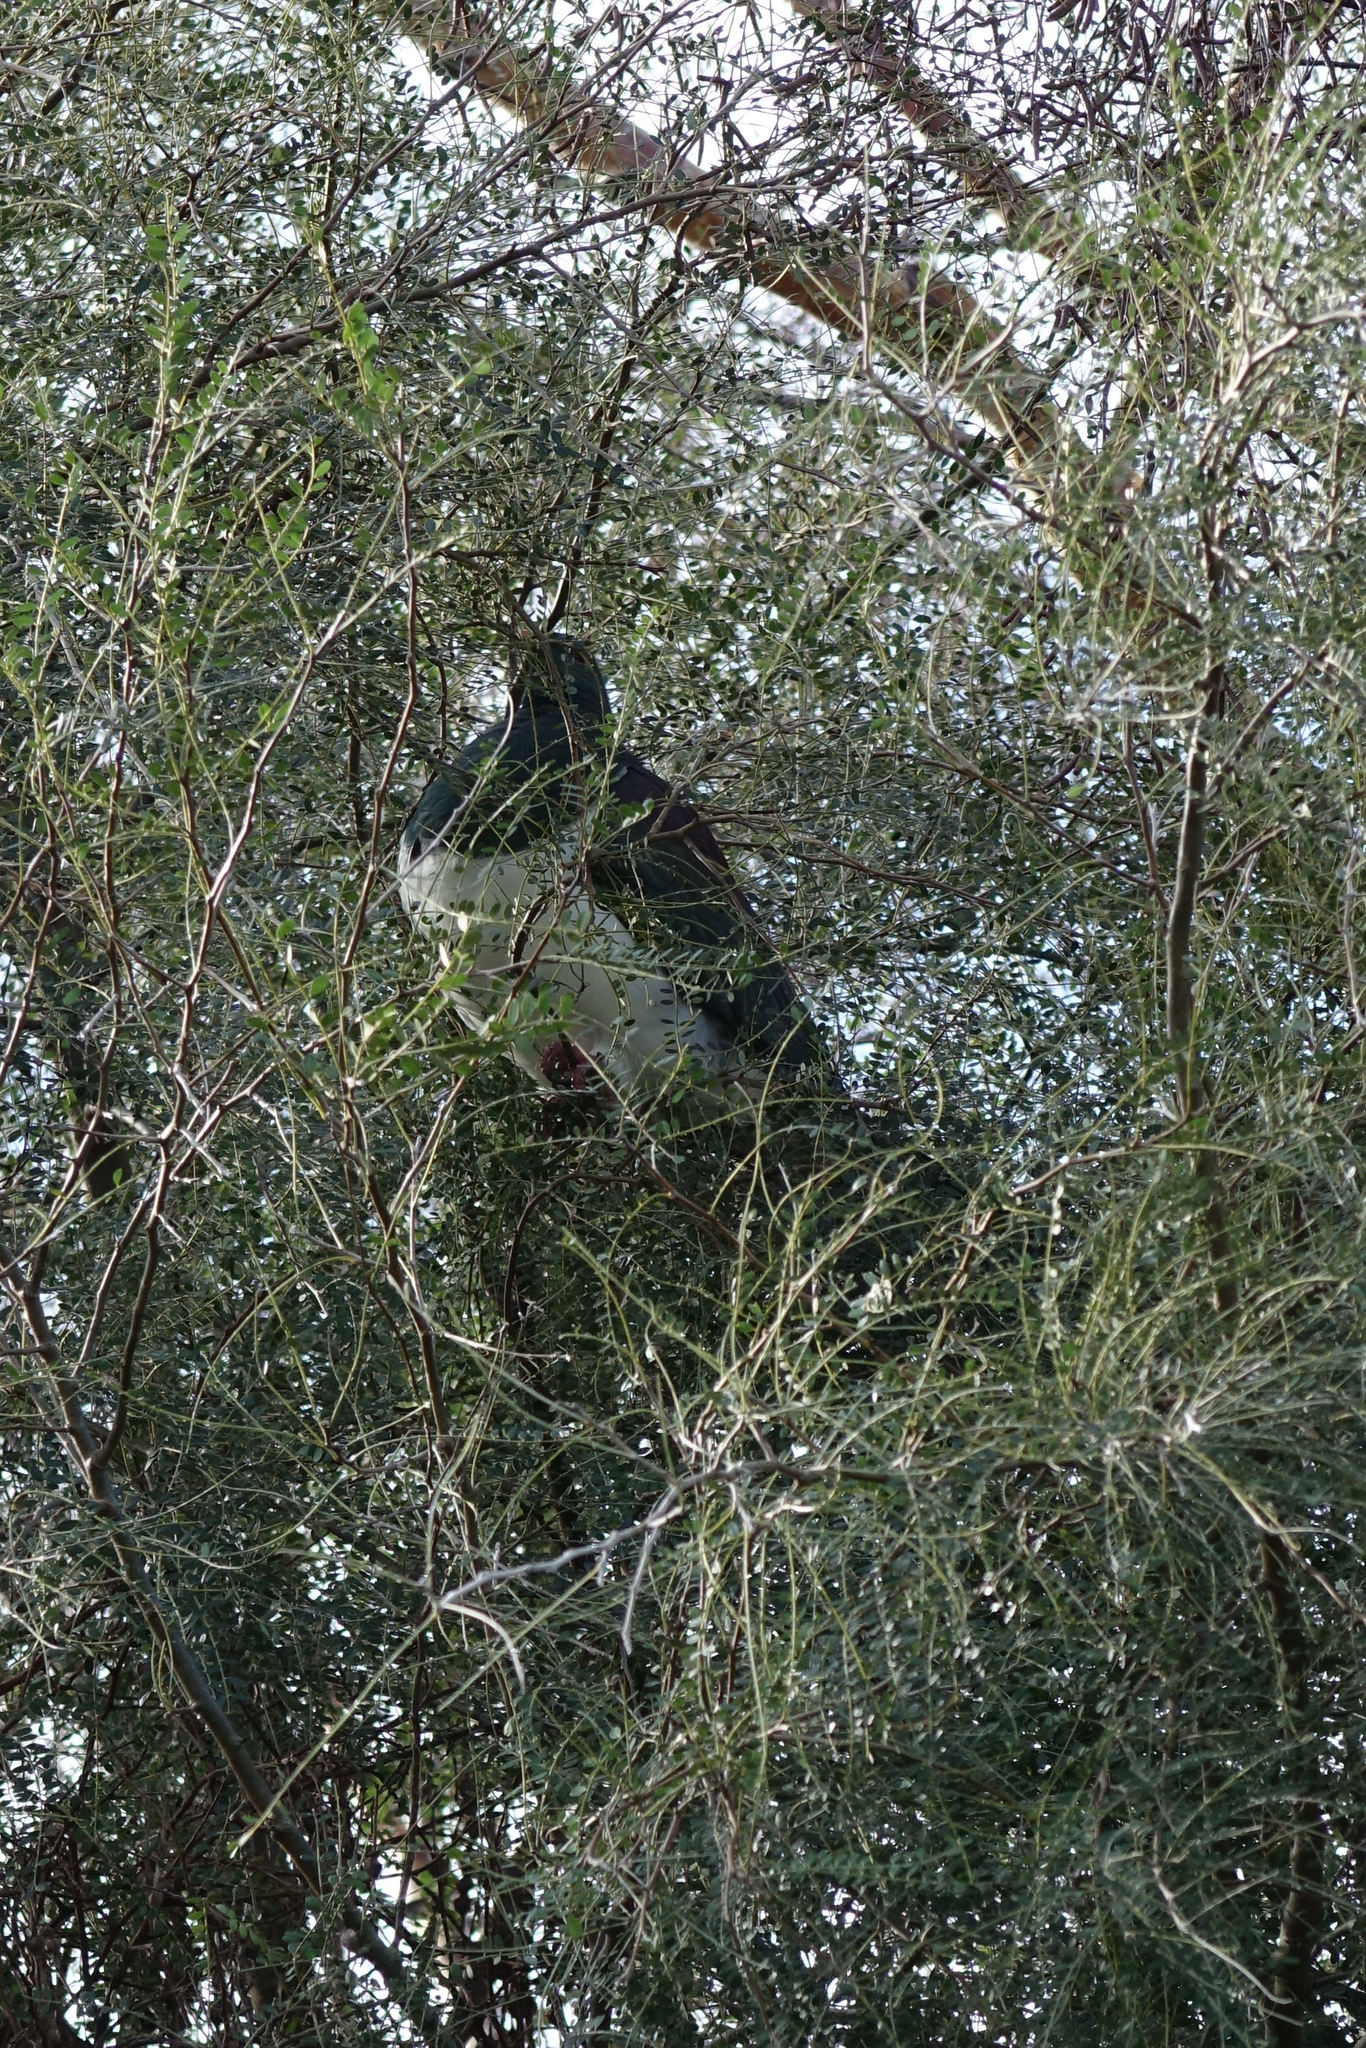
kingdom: Animalia
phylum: Chordata
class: Aves
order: Columbiformes
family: Columbidae
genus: Hemiphaga
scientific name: Hemiphaga novaeseelandiae
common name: New zealand pigeon
